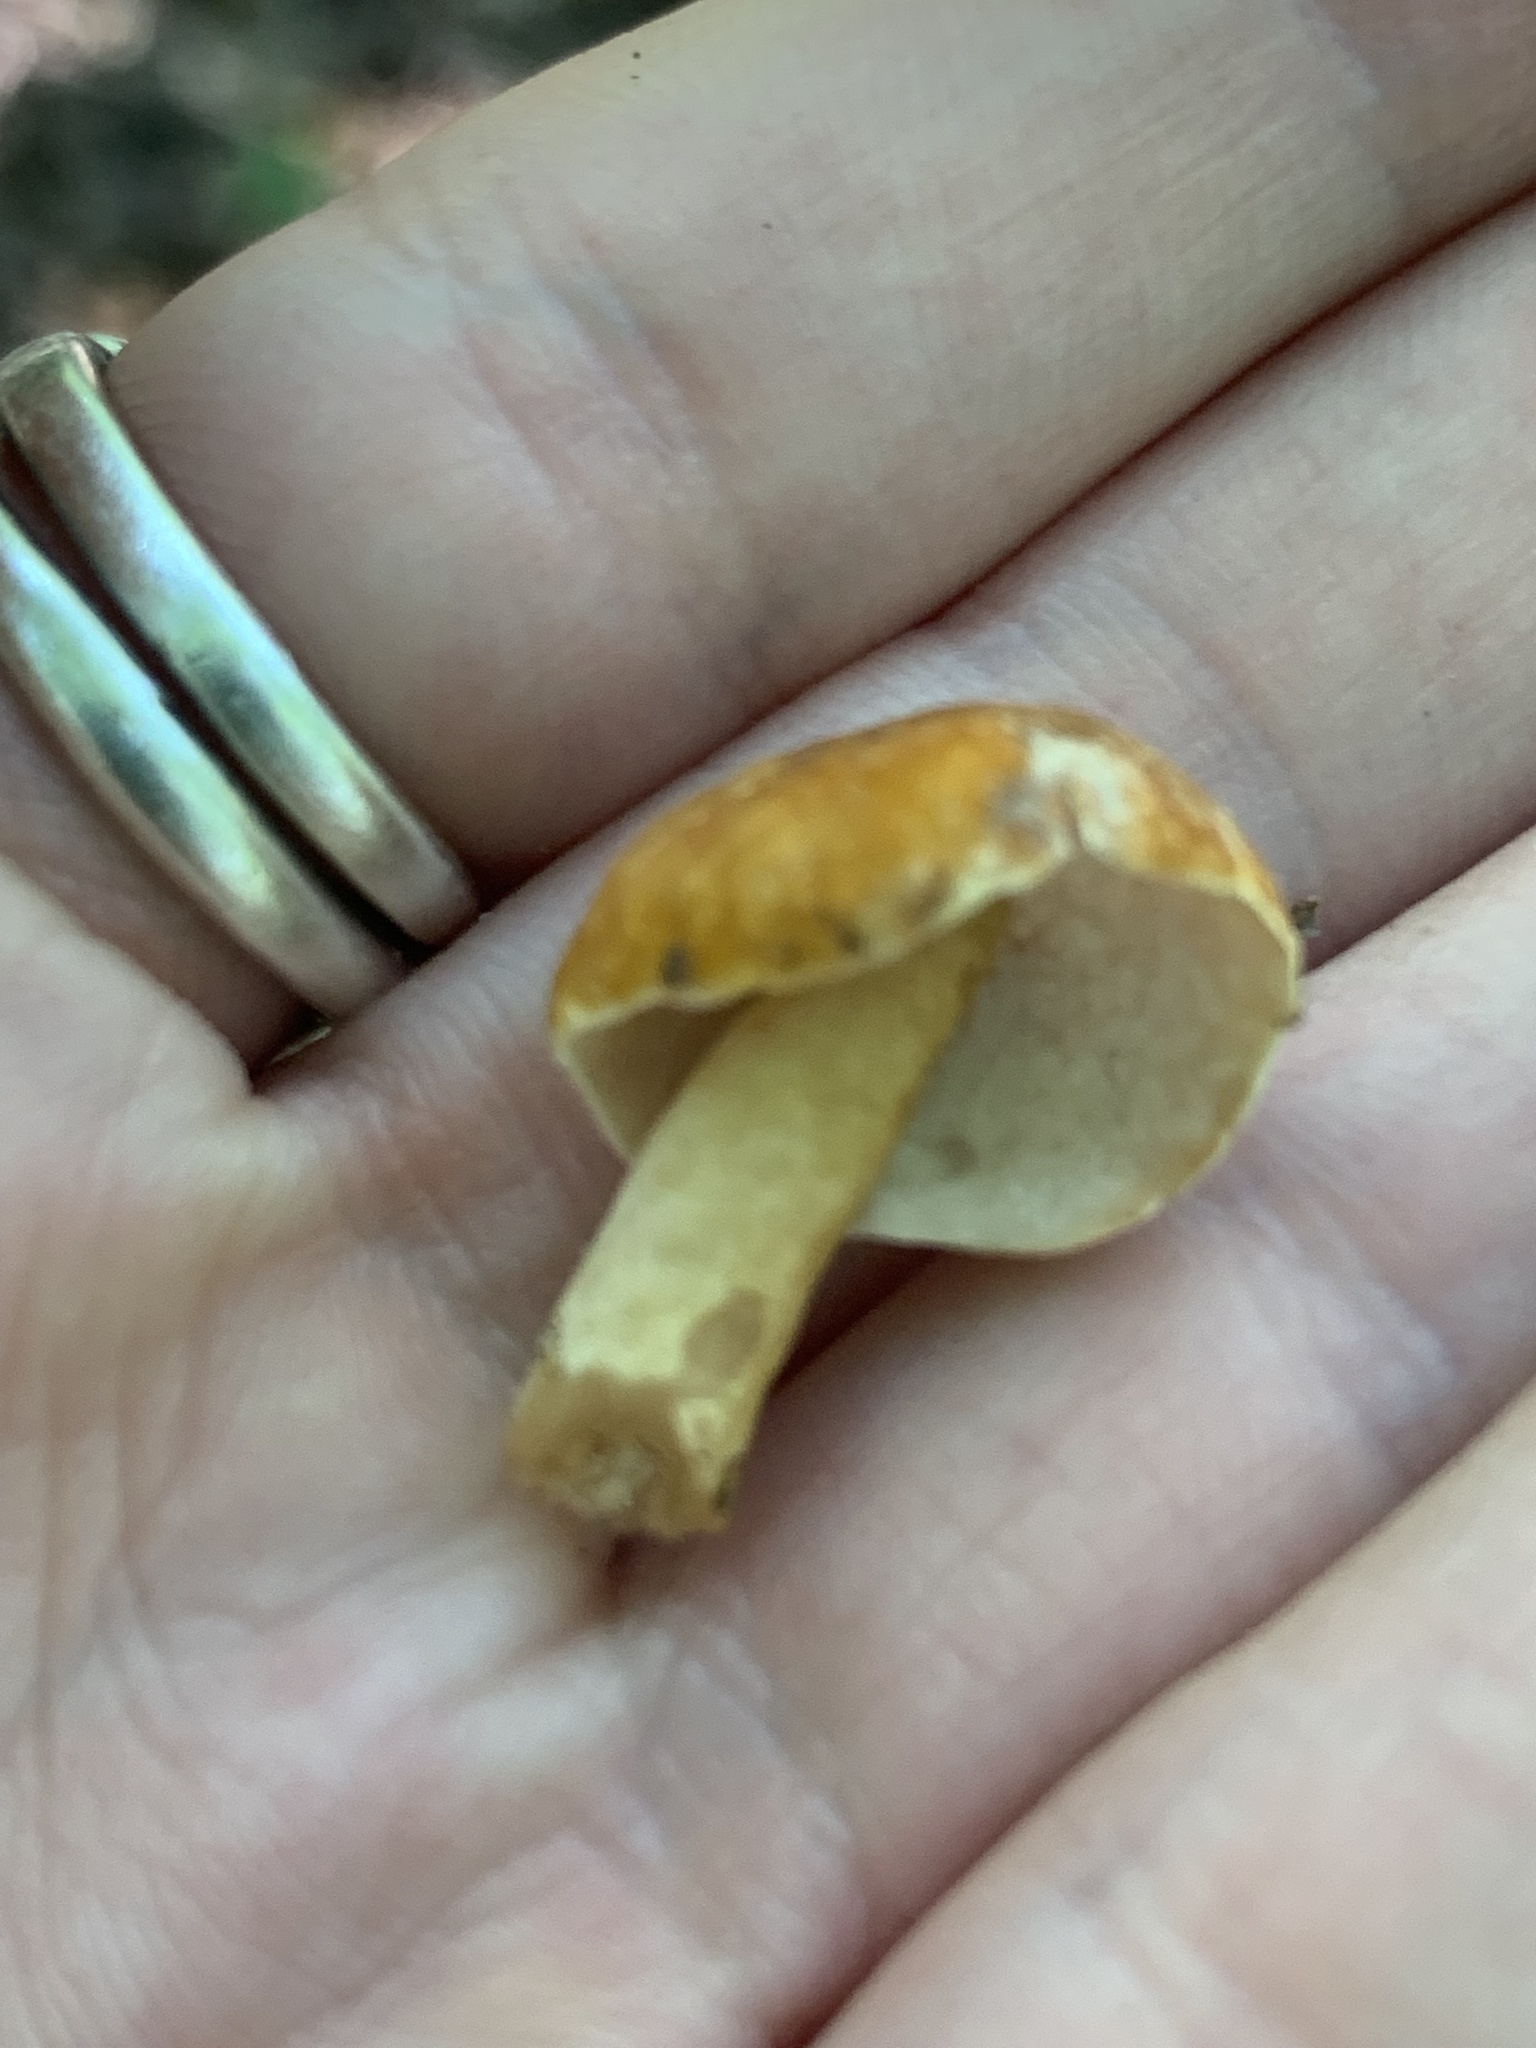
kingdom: Fungi
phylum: Basidiomycota
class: Agaricomycetes
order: Boletales
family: Gyroporaceae
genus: Gyroporus
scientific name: Gyroporus castaneus
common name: Chestnut bolete
